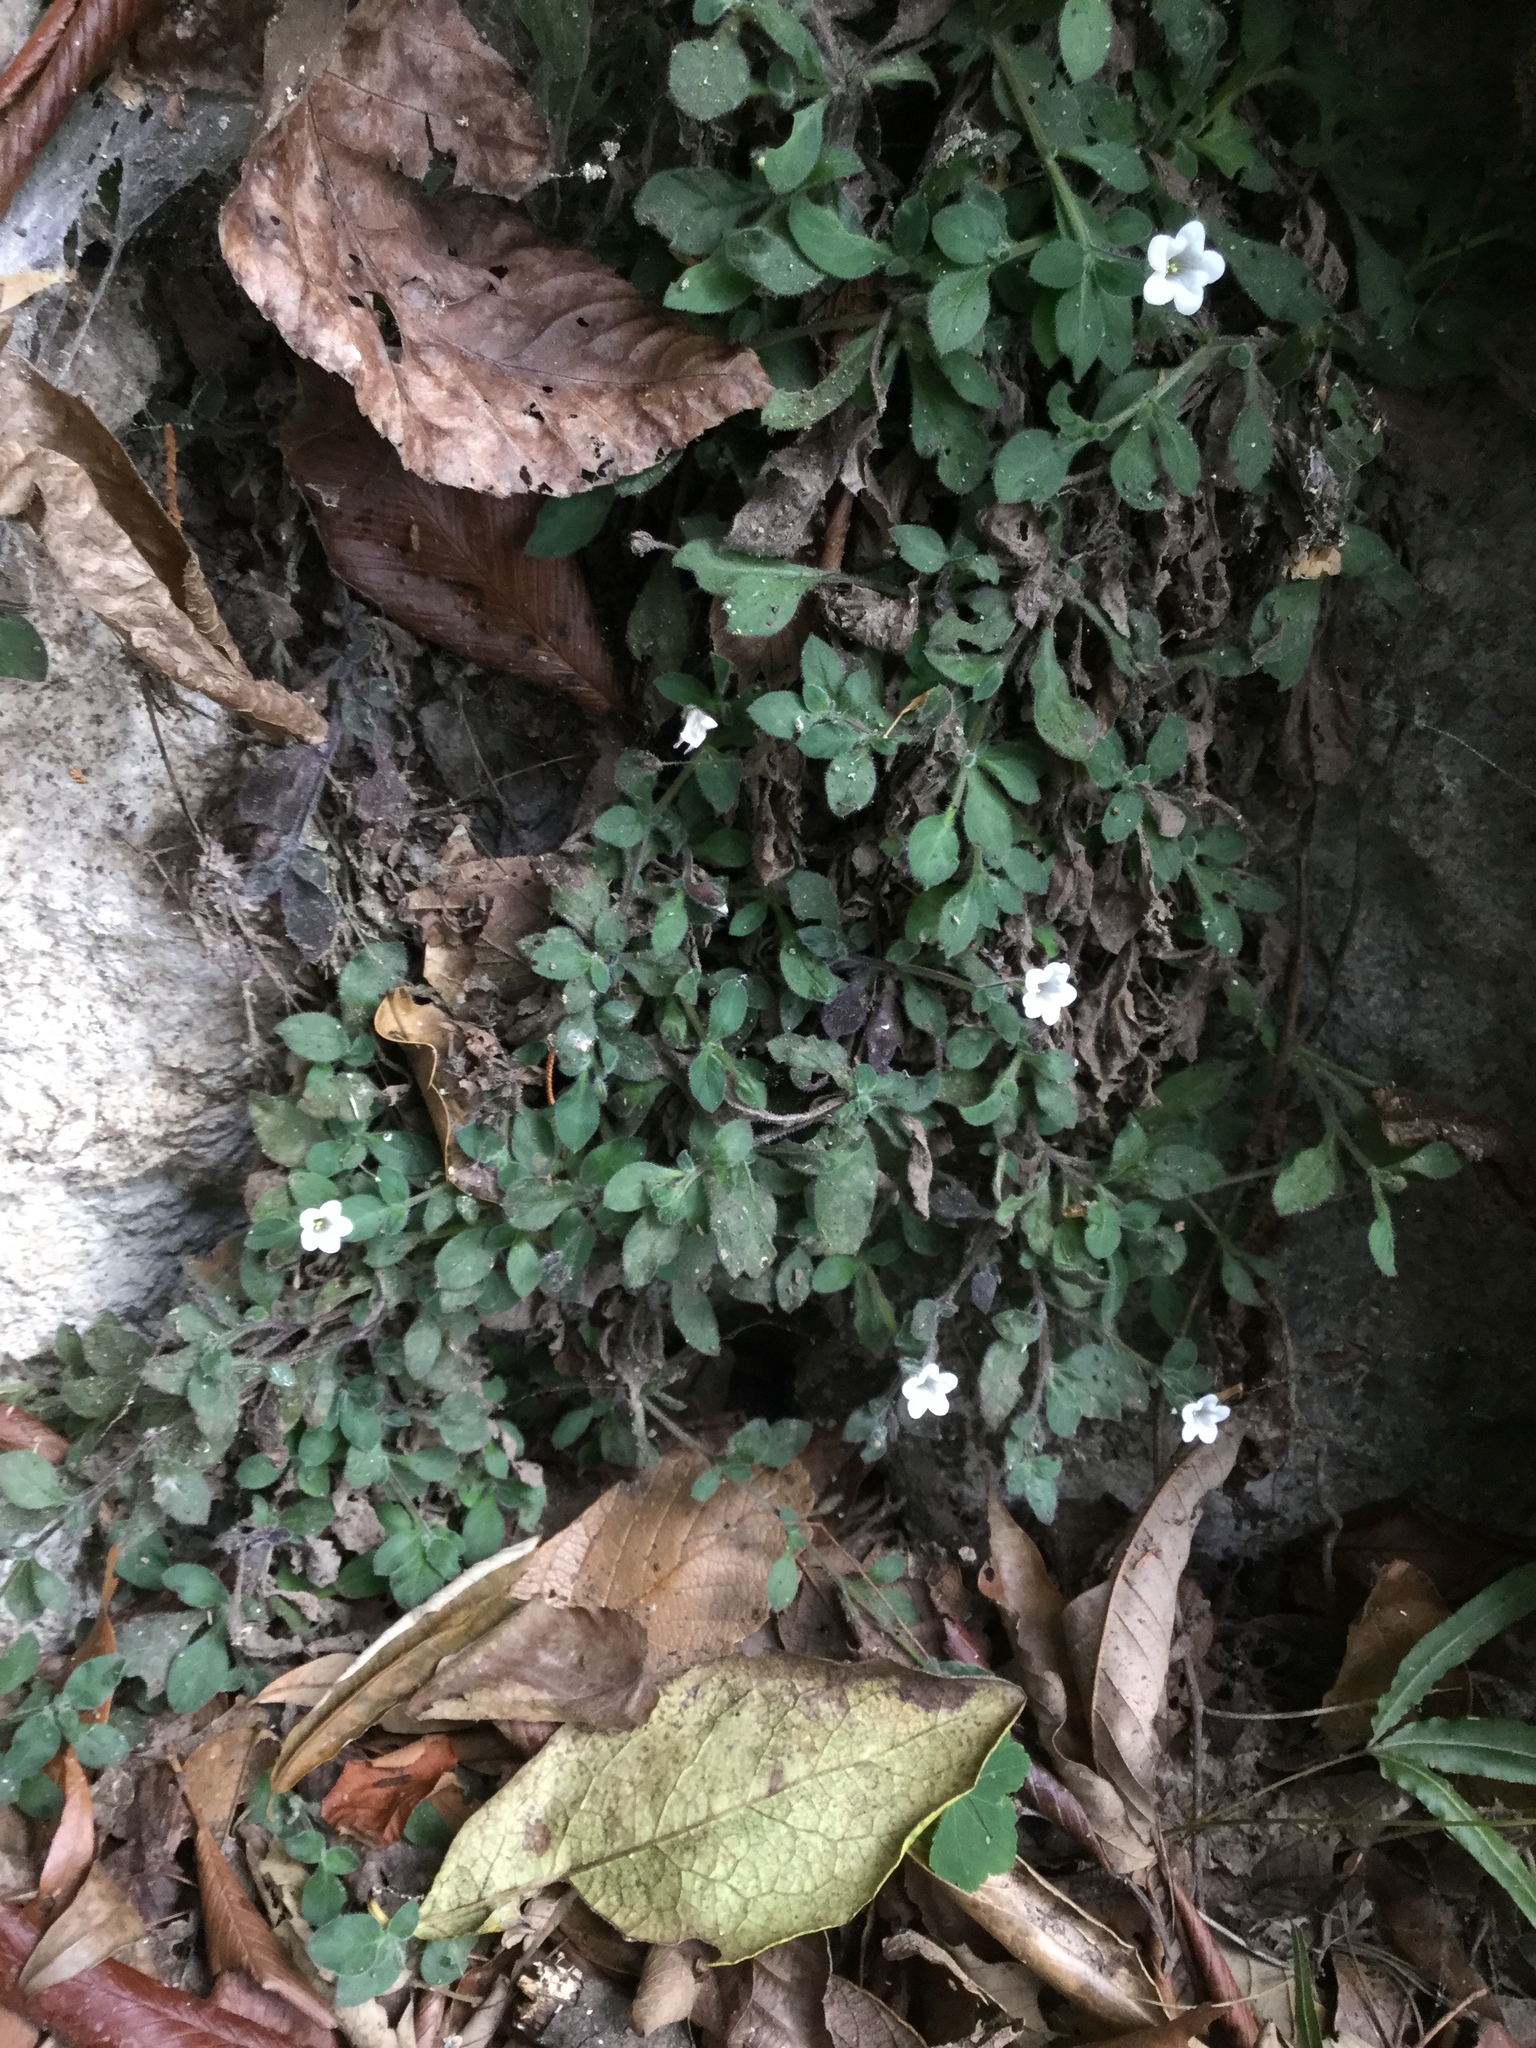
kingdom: Plantae
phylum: Tracheophyta
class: Magnoliopsida
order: Boraginales
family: Namaceae
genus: Nama
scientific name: Nama jamaicensis
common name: Jamaicanweed
